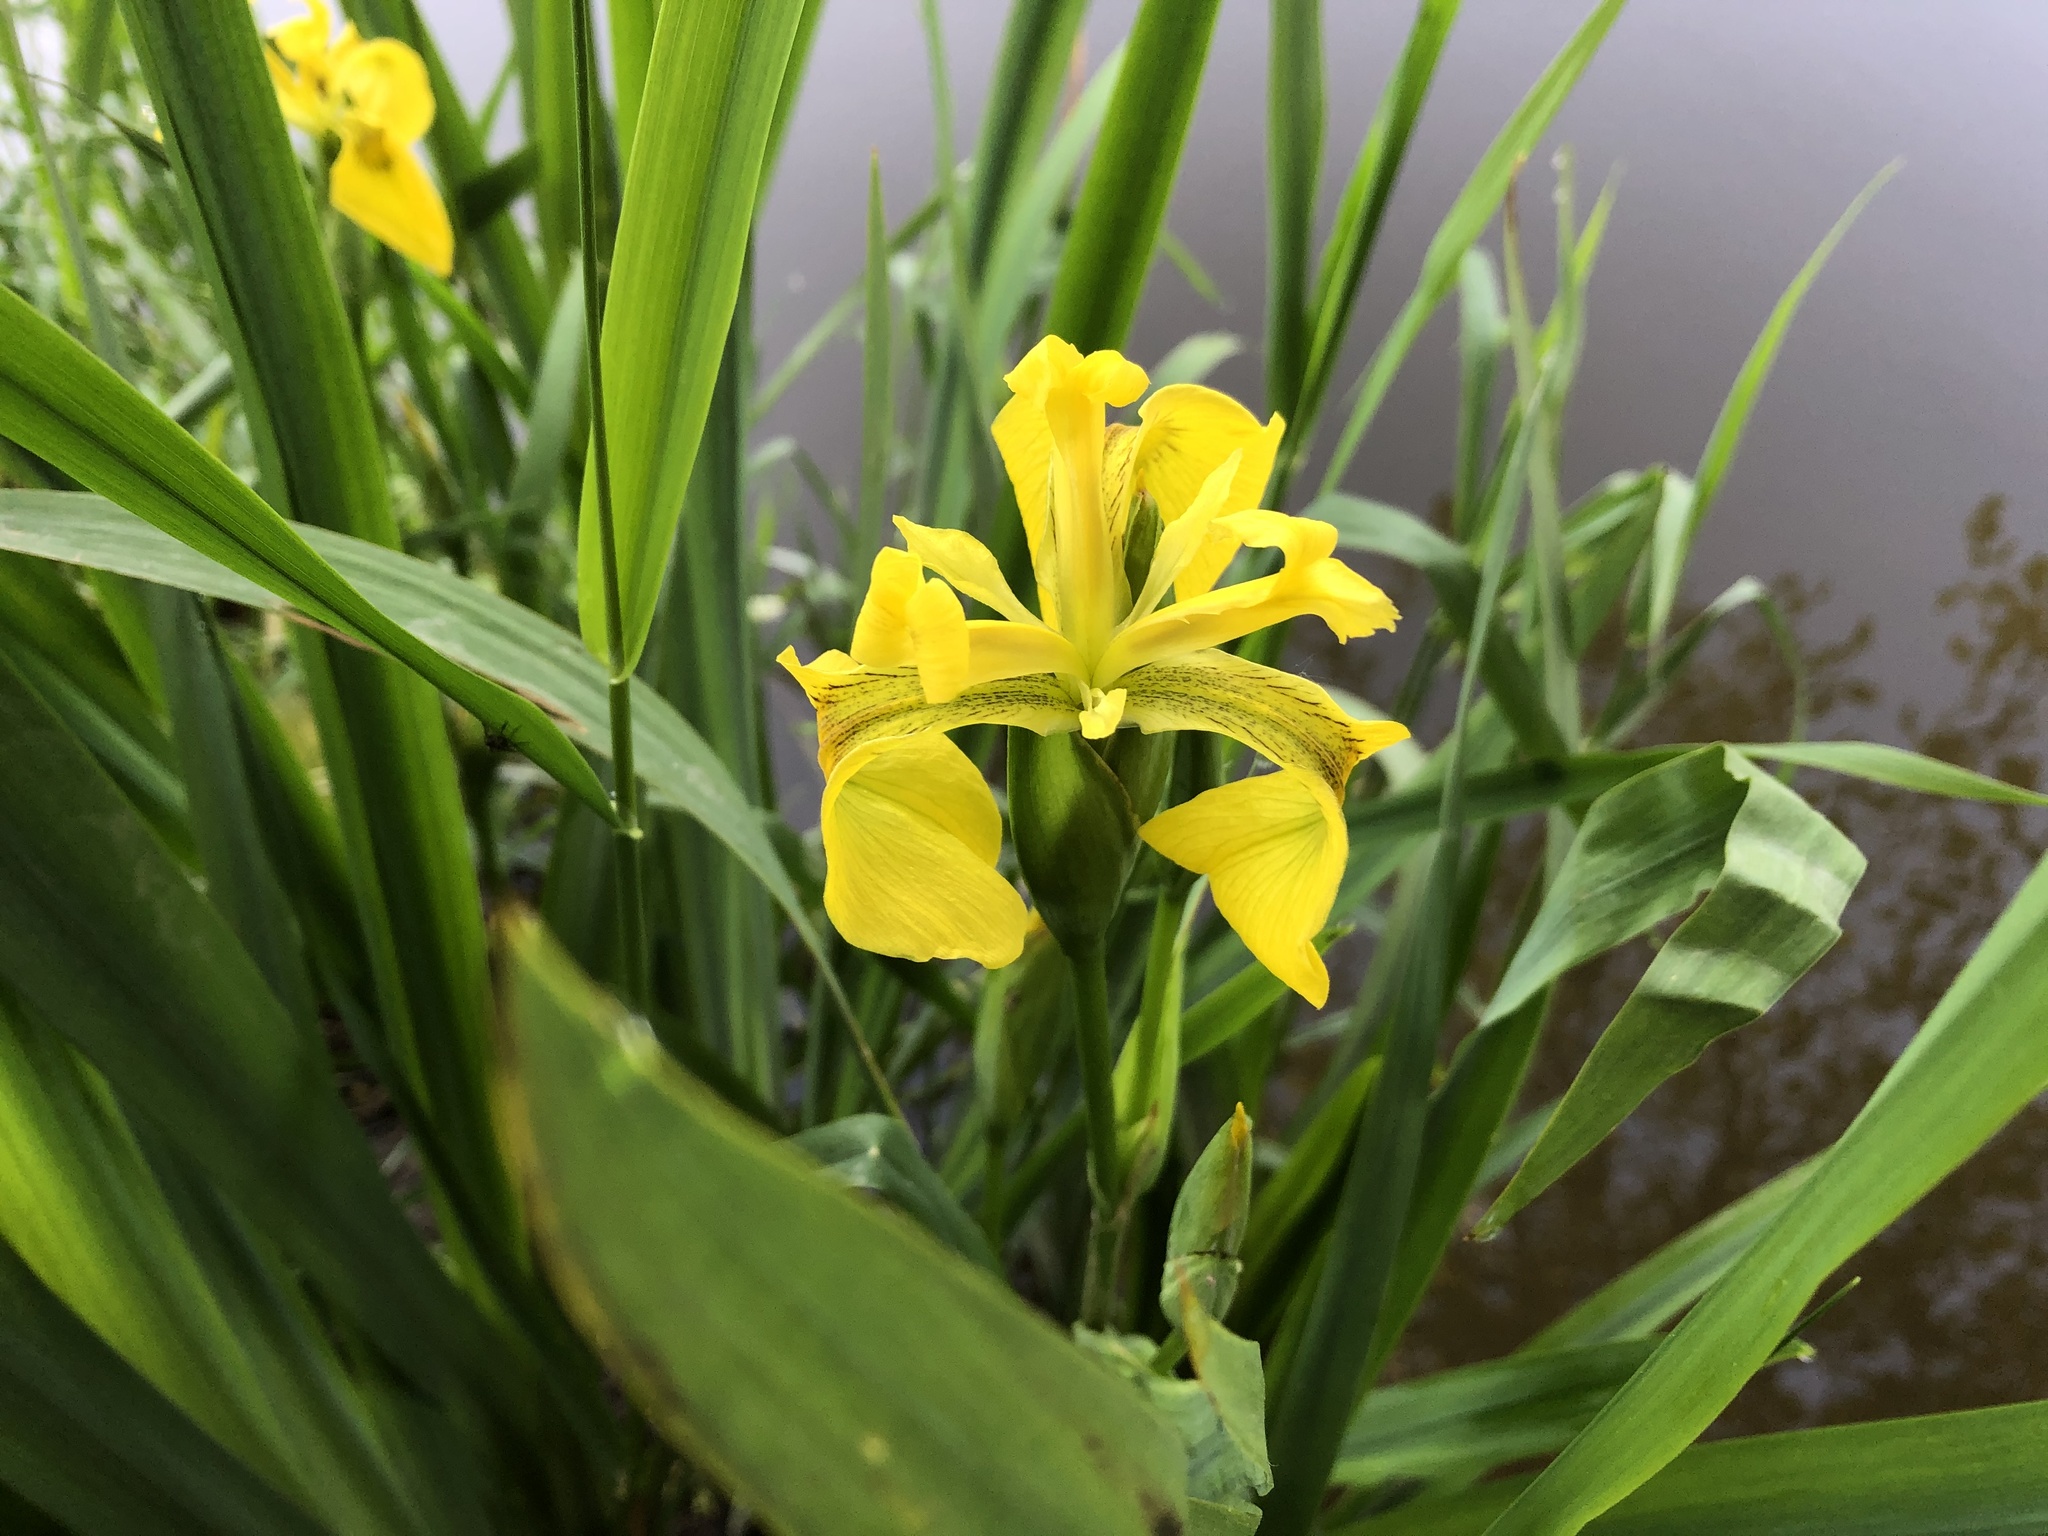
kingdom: Plantae
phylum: Tracheophyta
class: Liliopsida
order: Asparagales
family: Iridaceae
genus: Iris
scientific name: Iris pseudacorus
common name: Yellow flag
